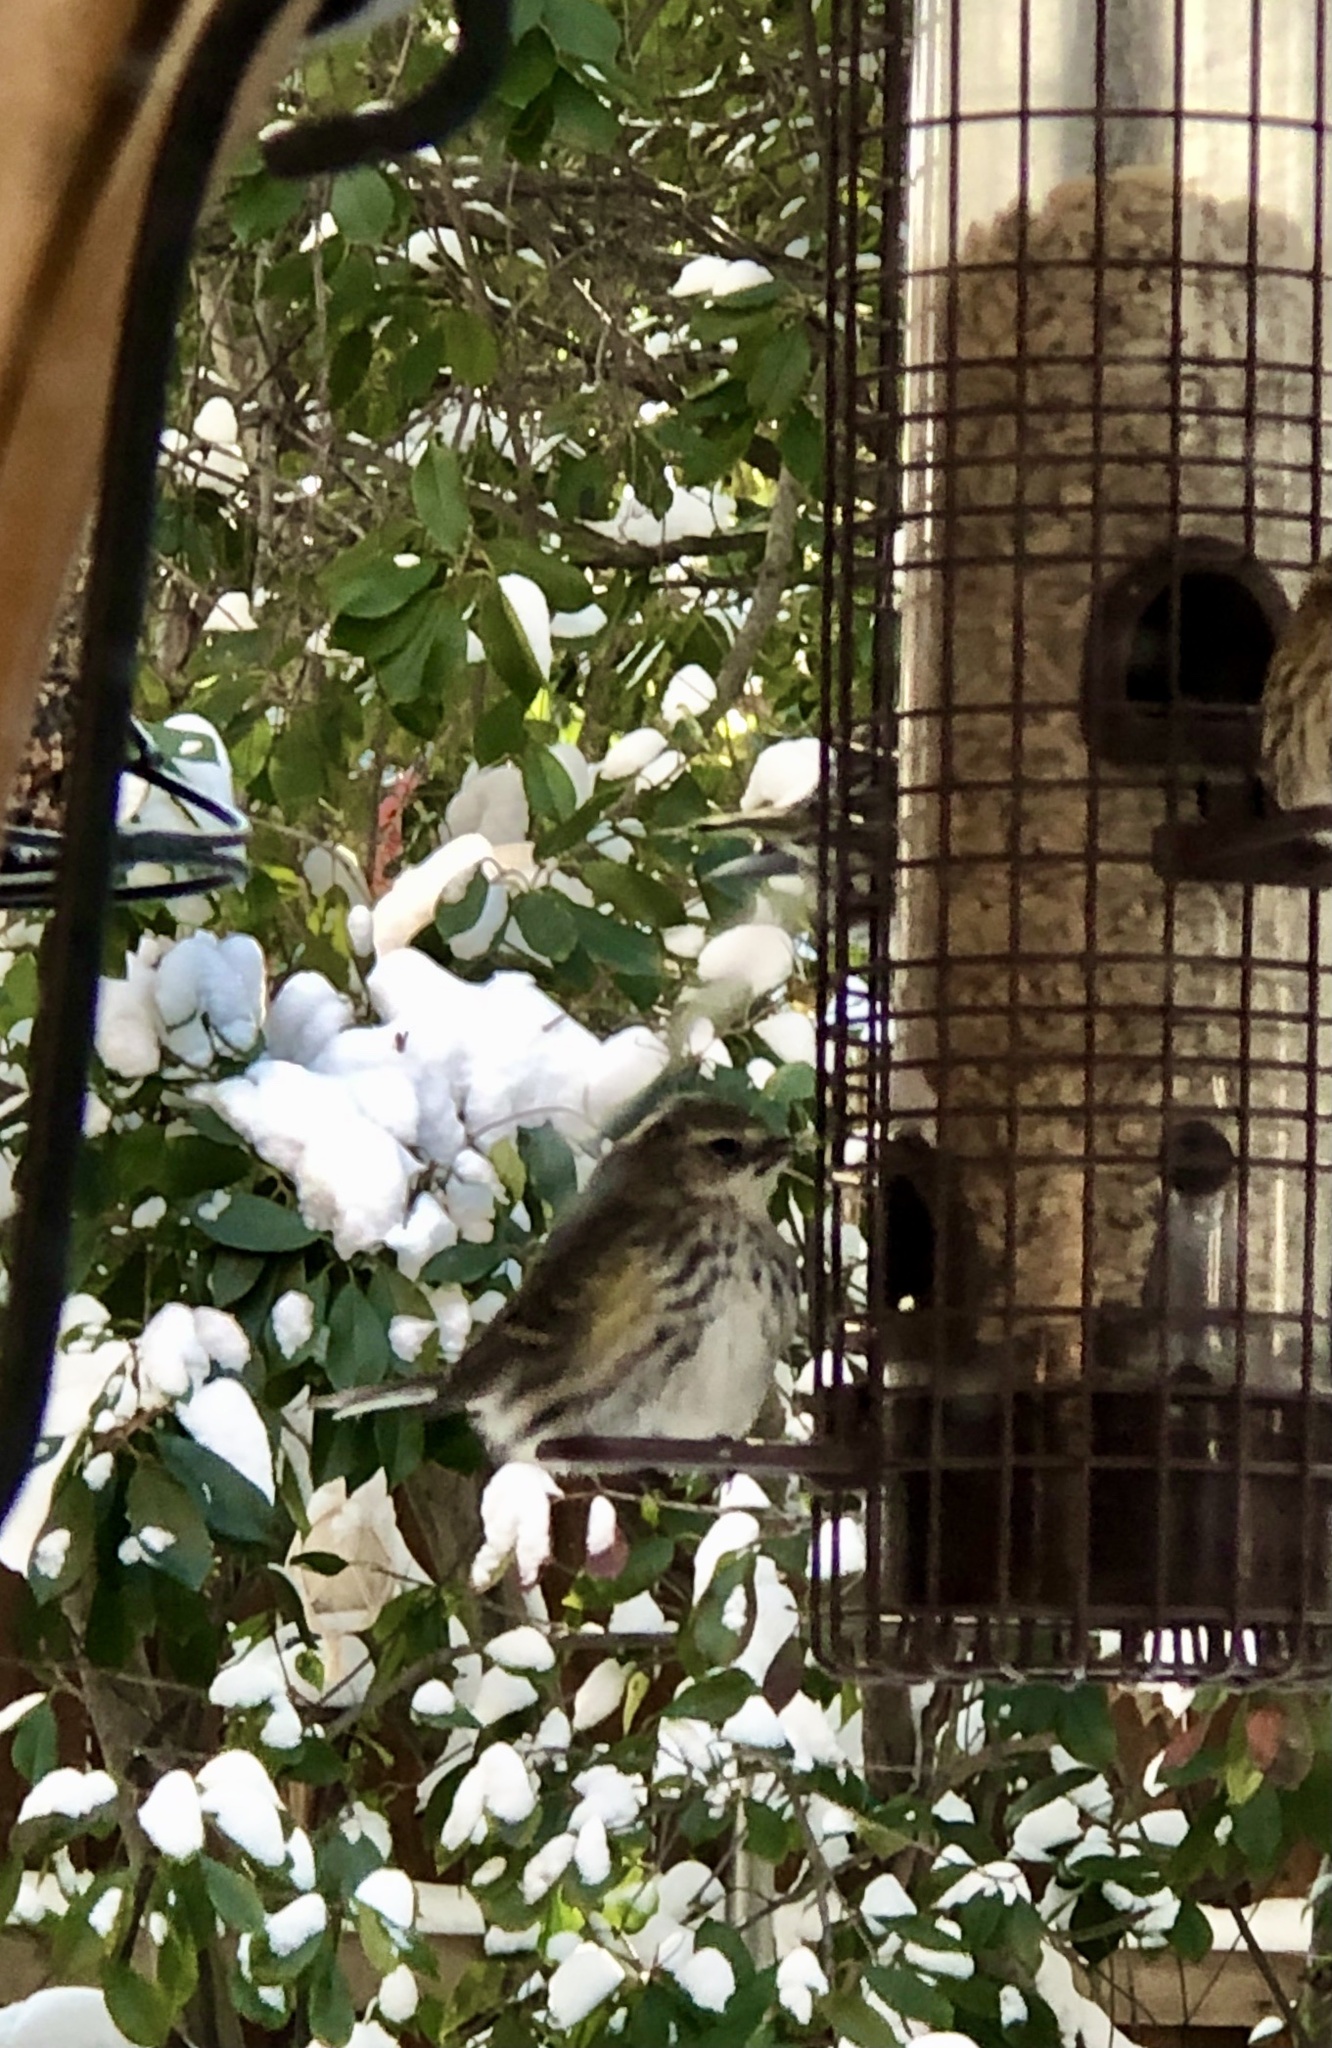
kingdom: Animalia
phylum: Chordata
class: Aves
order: Passeriformes
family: Parulidae
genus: Setophaga
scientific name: Setophaga coronata
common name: Myrtle warbler
